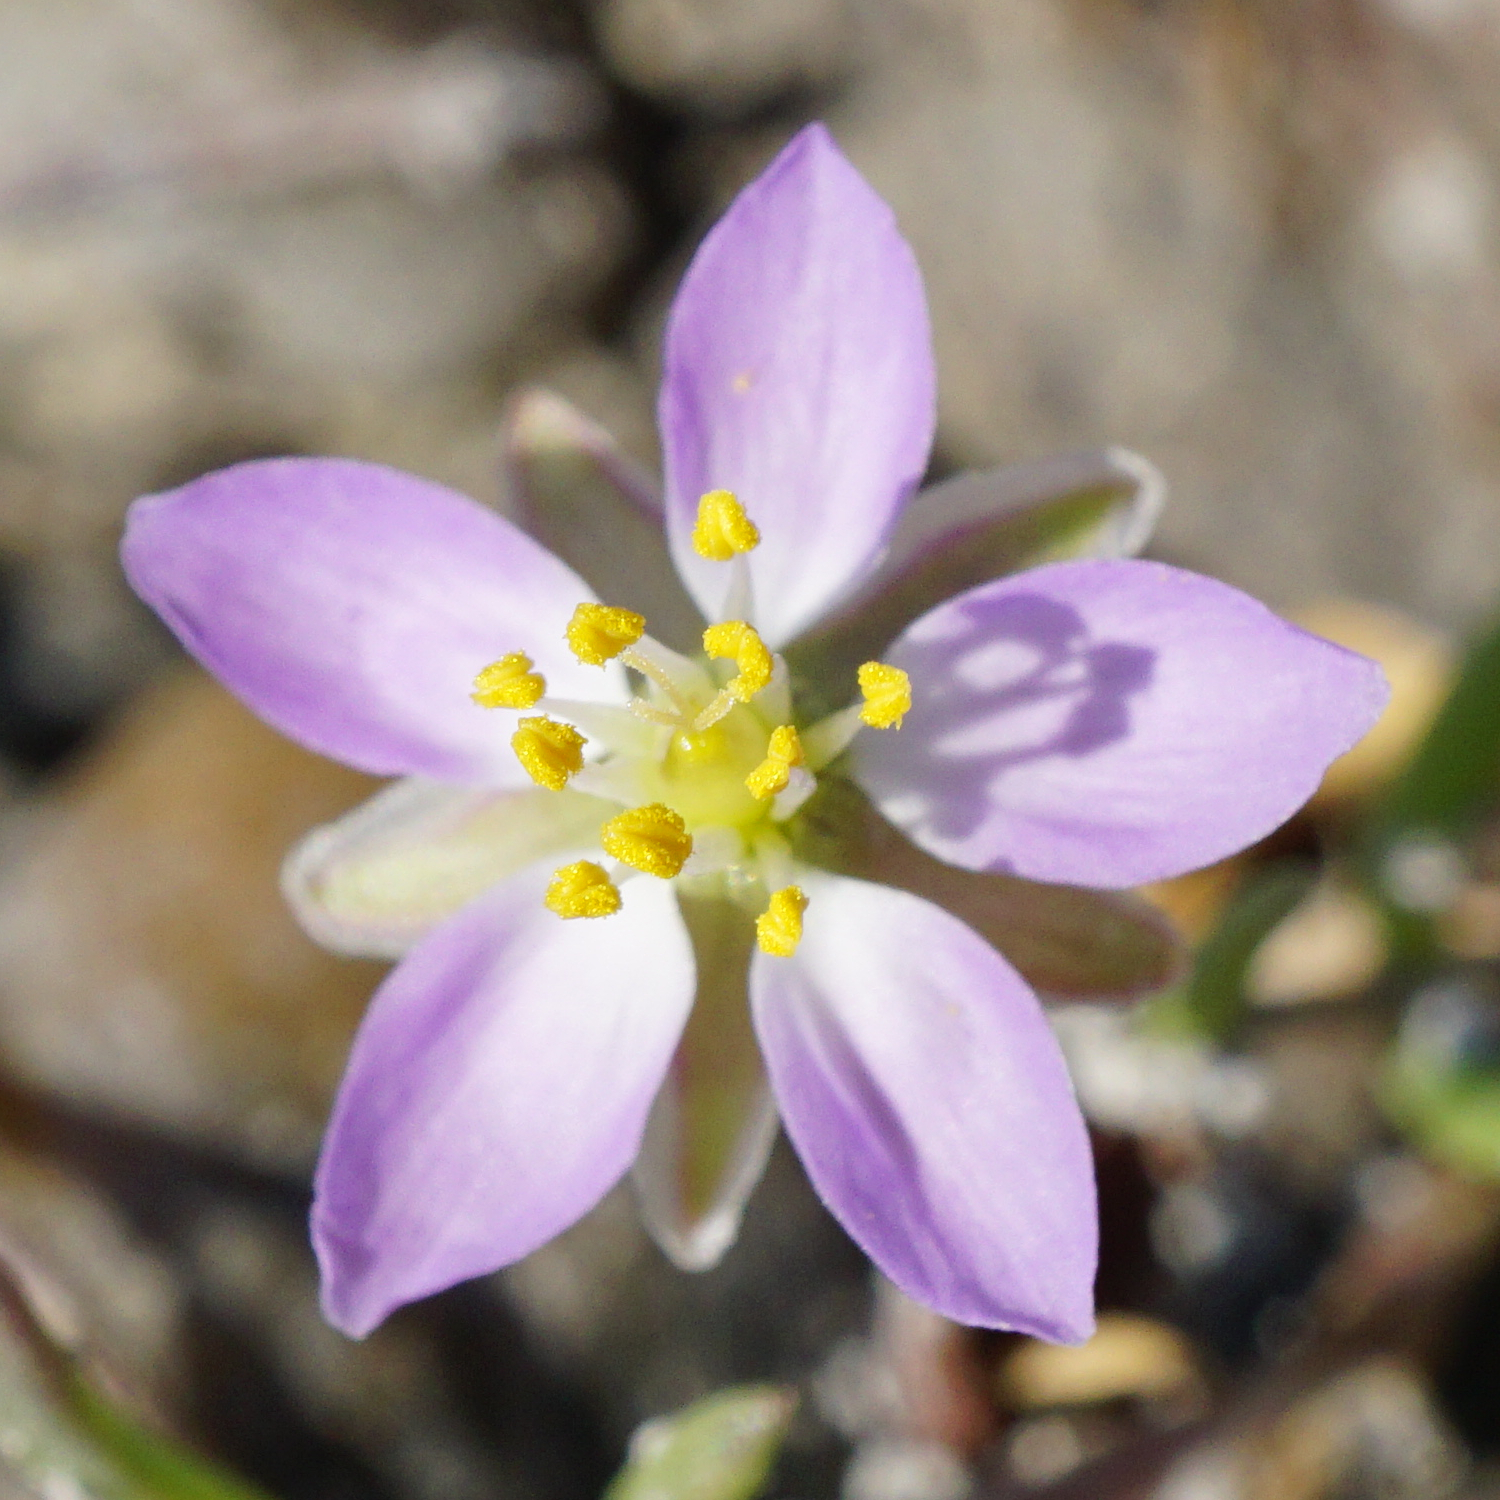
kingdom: Plantae
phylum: Tracheophyta
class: Magnoliopsida
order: Caryophyllales
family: Caryophyllaceae
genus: Spergularia
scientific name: Spergularia media
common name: Greater sea-spurrey
